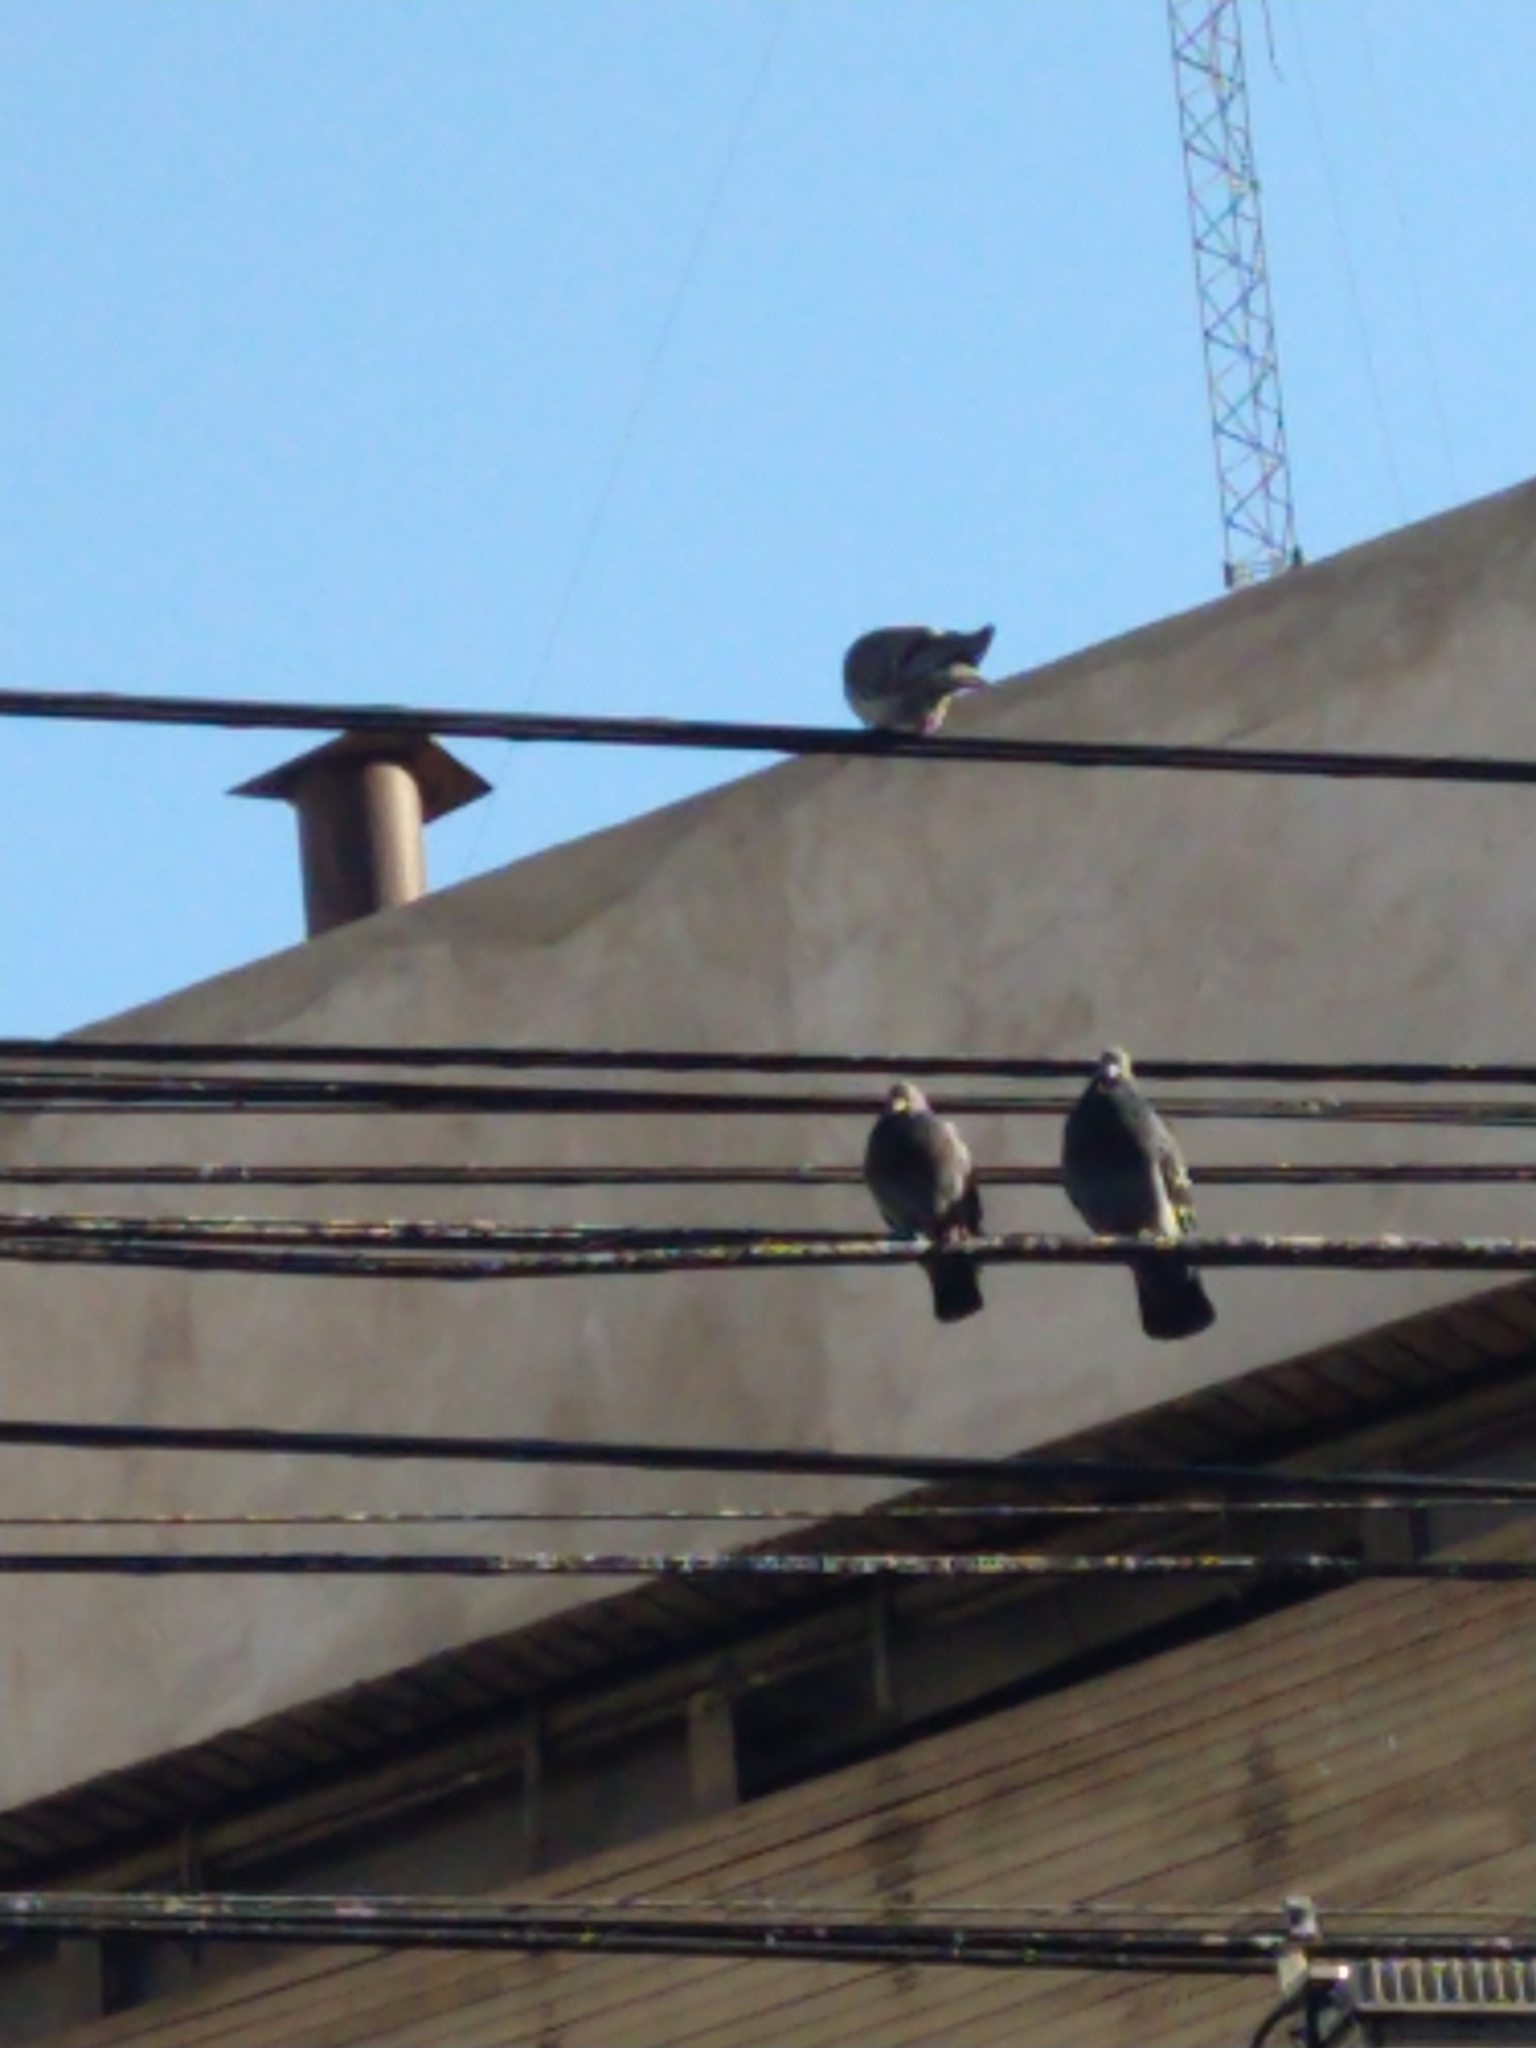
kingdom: Animalia
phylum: Chordata
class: Aves
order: Columbiformes
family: Columbidae
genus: Columba
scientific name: Columba livia
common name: Rock pigeon
